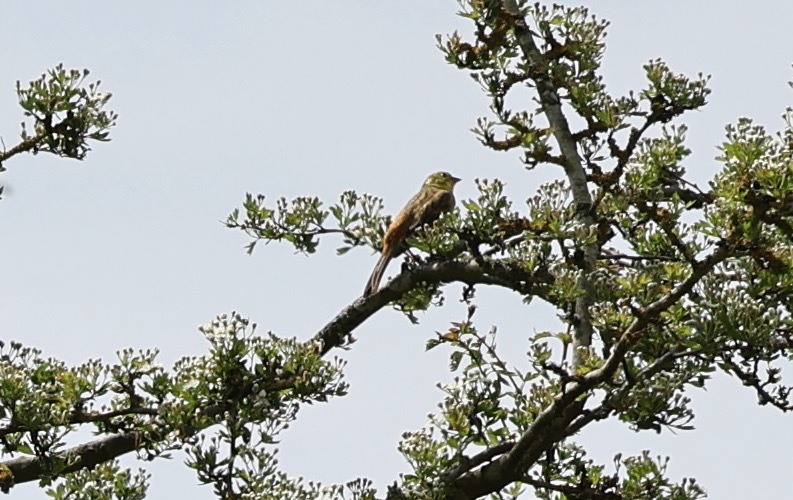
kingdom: Animalia
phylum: Chordata
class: Aves
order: Passeriformes
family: Emberizidae
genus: Emberiza
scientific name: Emberiza citrinella
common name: Yellowhammer
